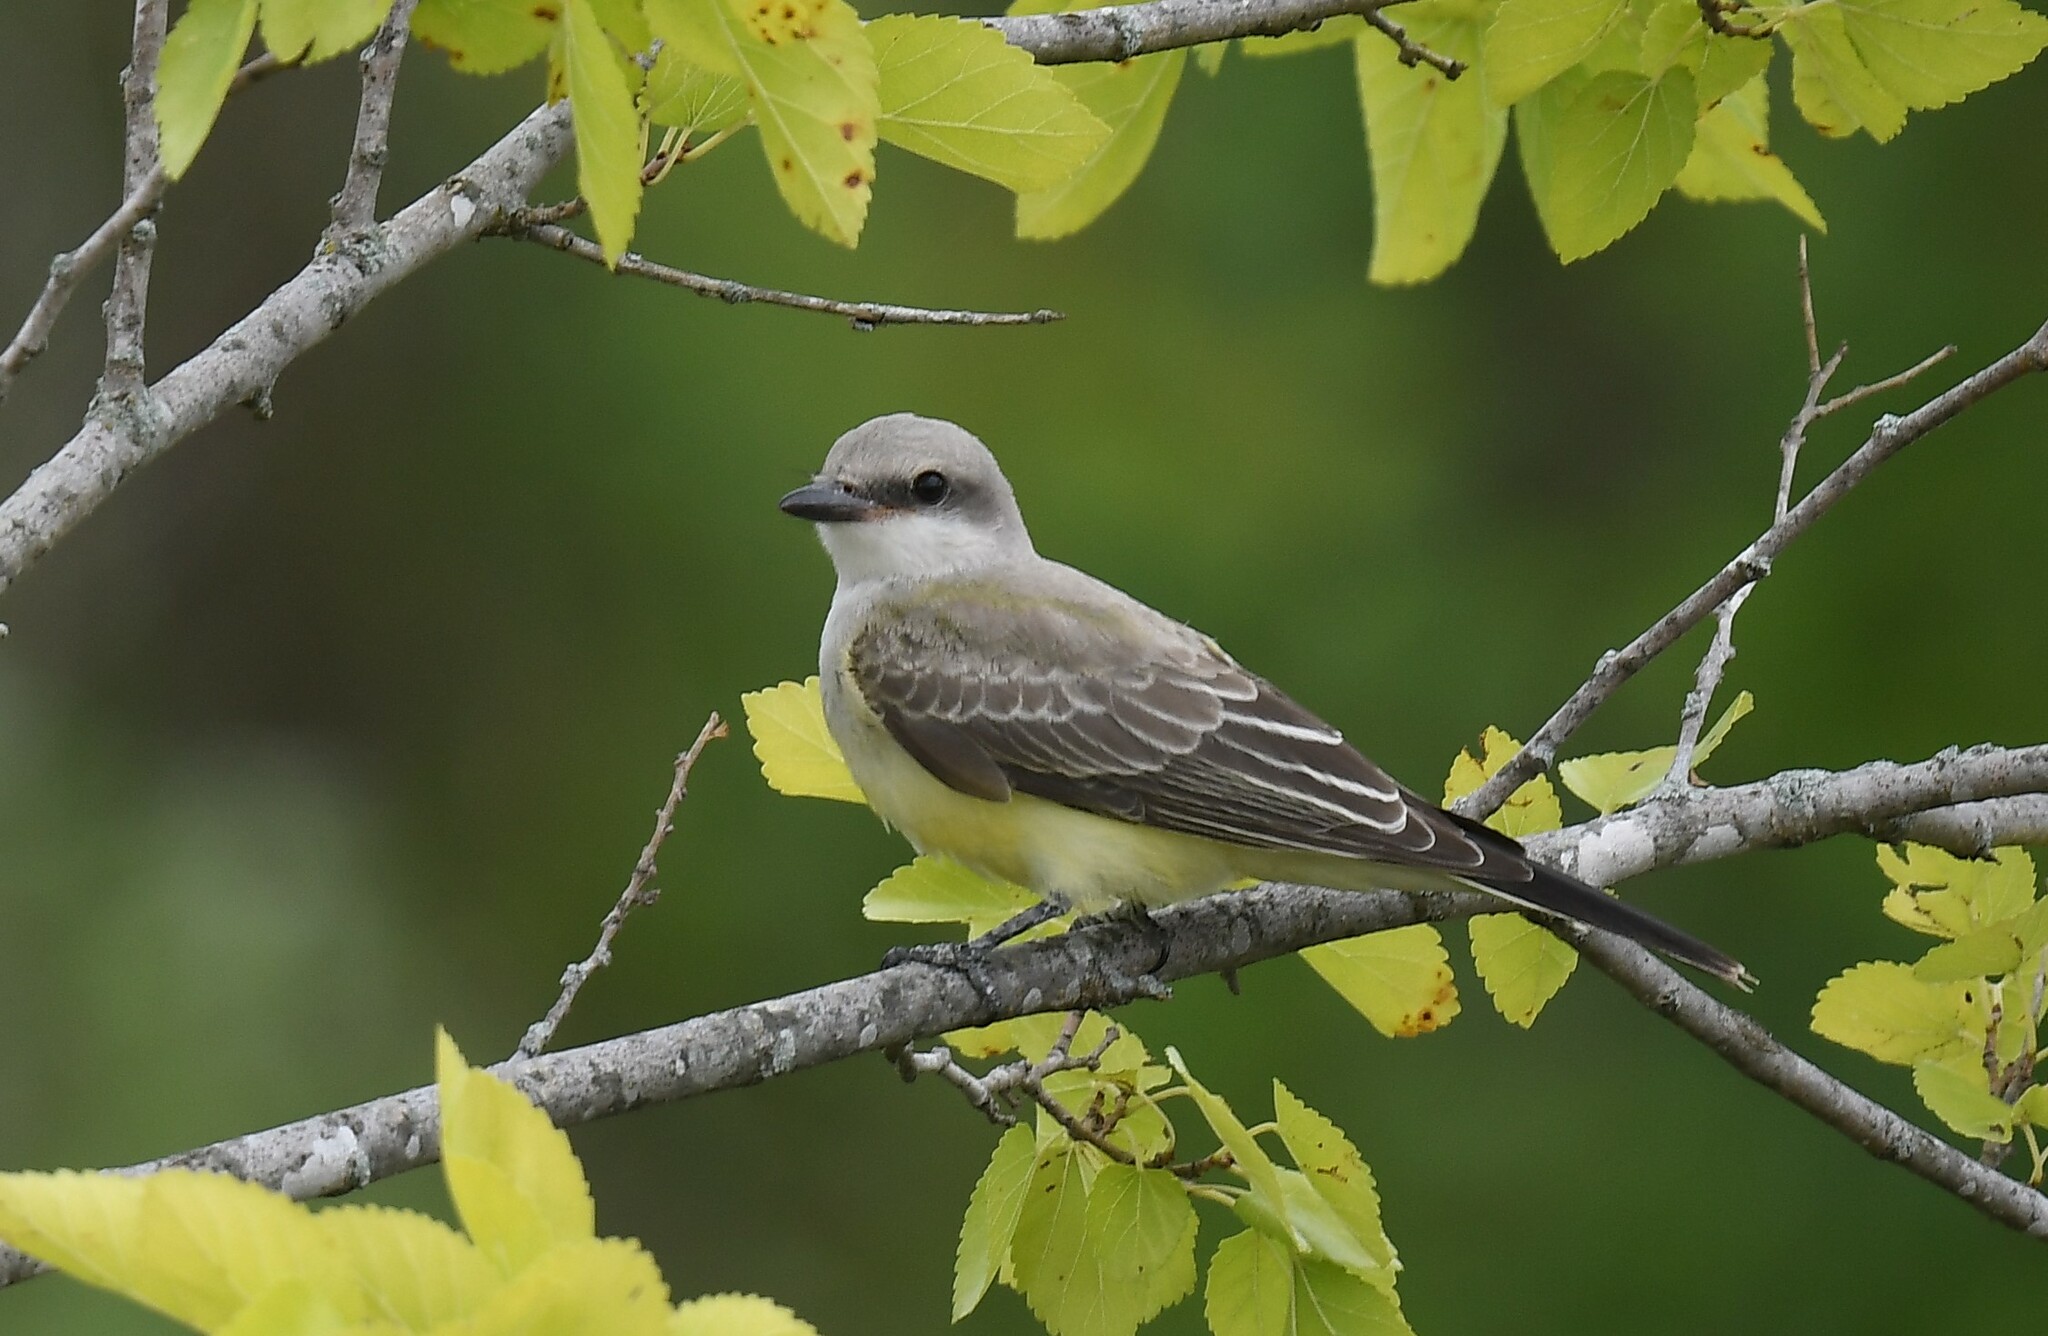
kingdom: Animalia
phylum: Chordata
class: Aves
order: Passeriformes
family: Tyrannidae
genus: Tyrannus
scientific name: Tyrannus verticalis
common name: Western kingbird
